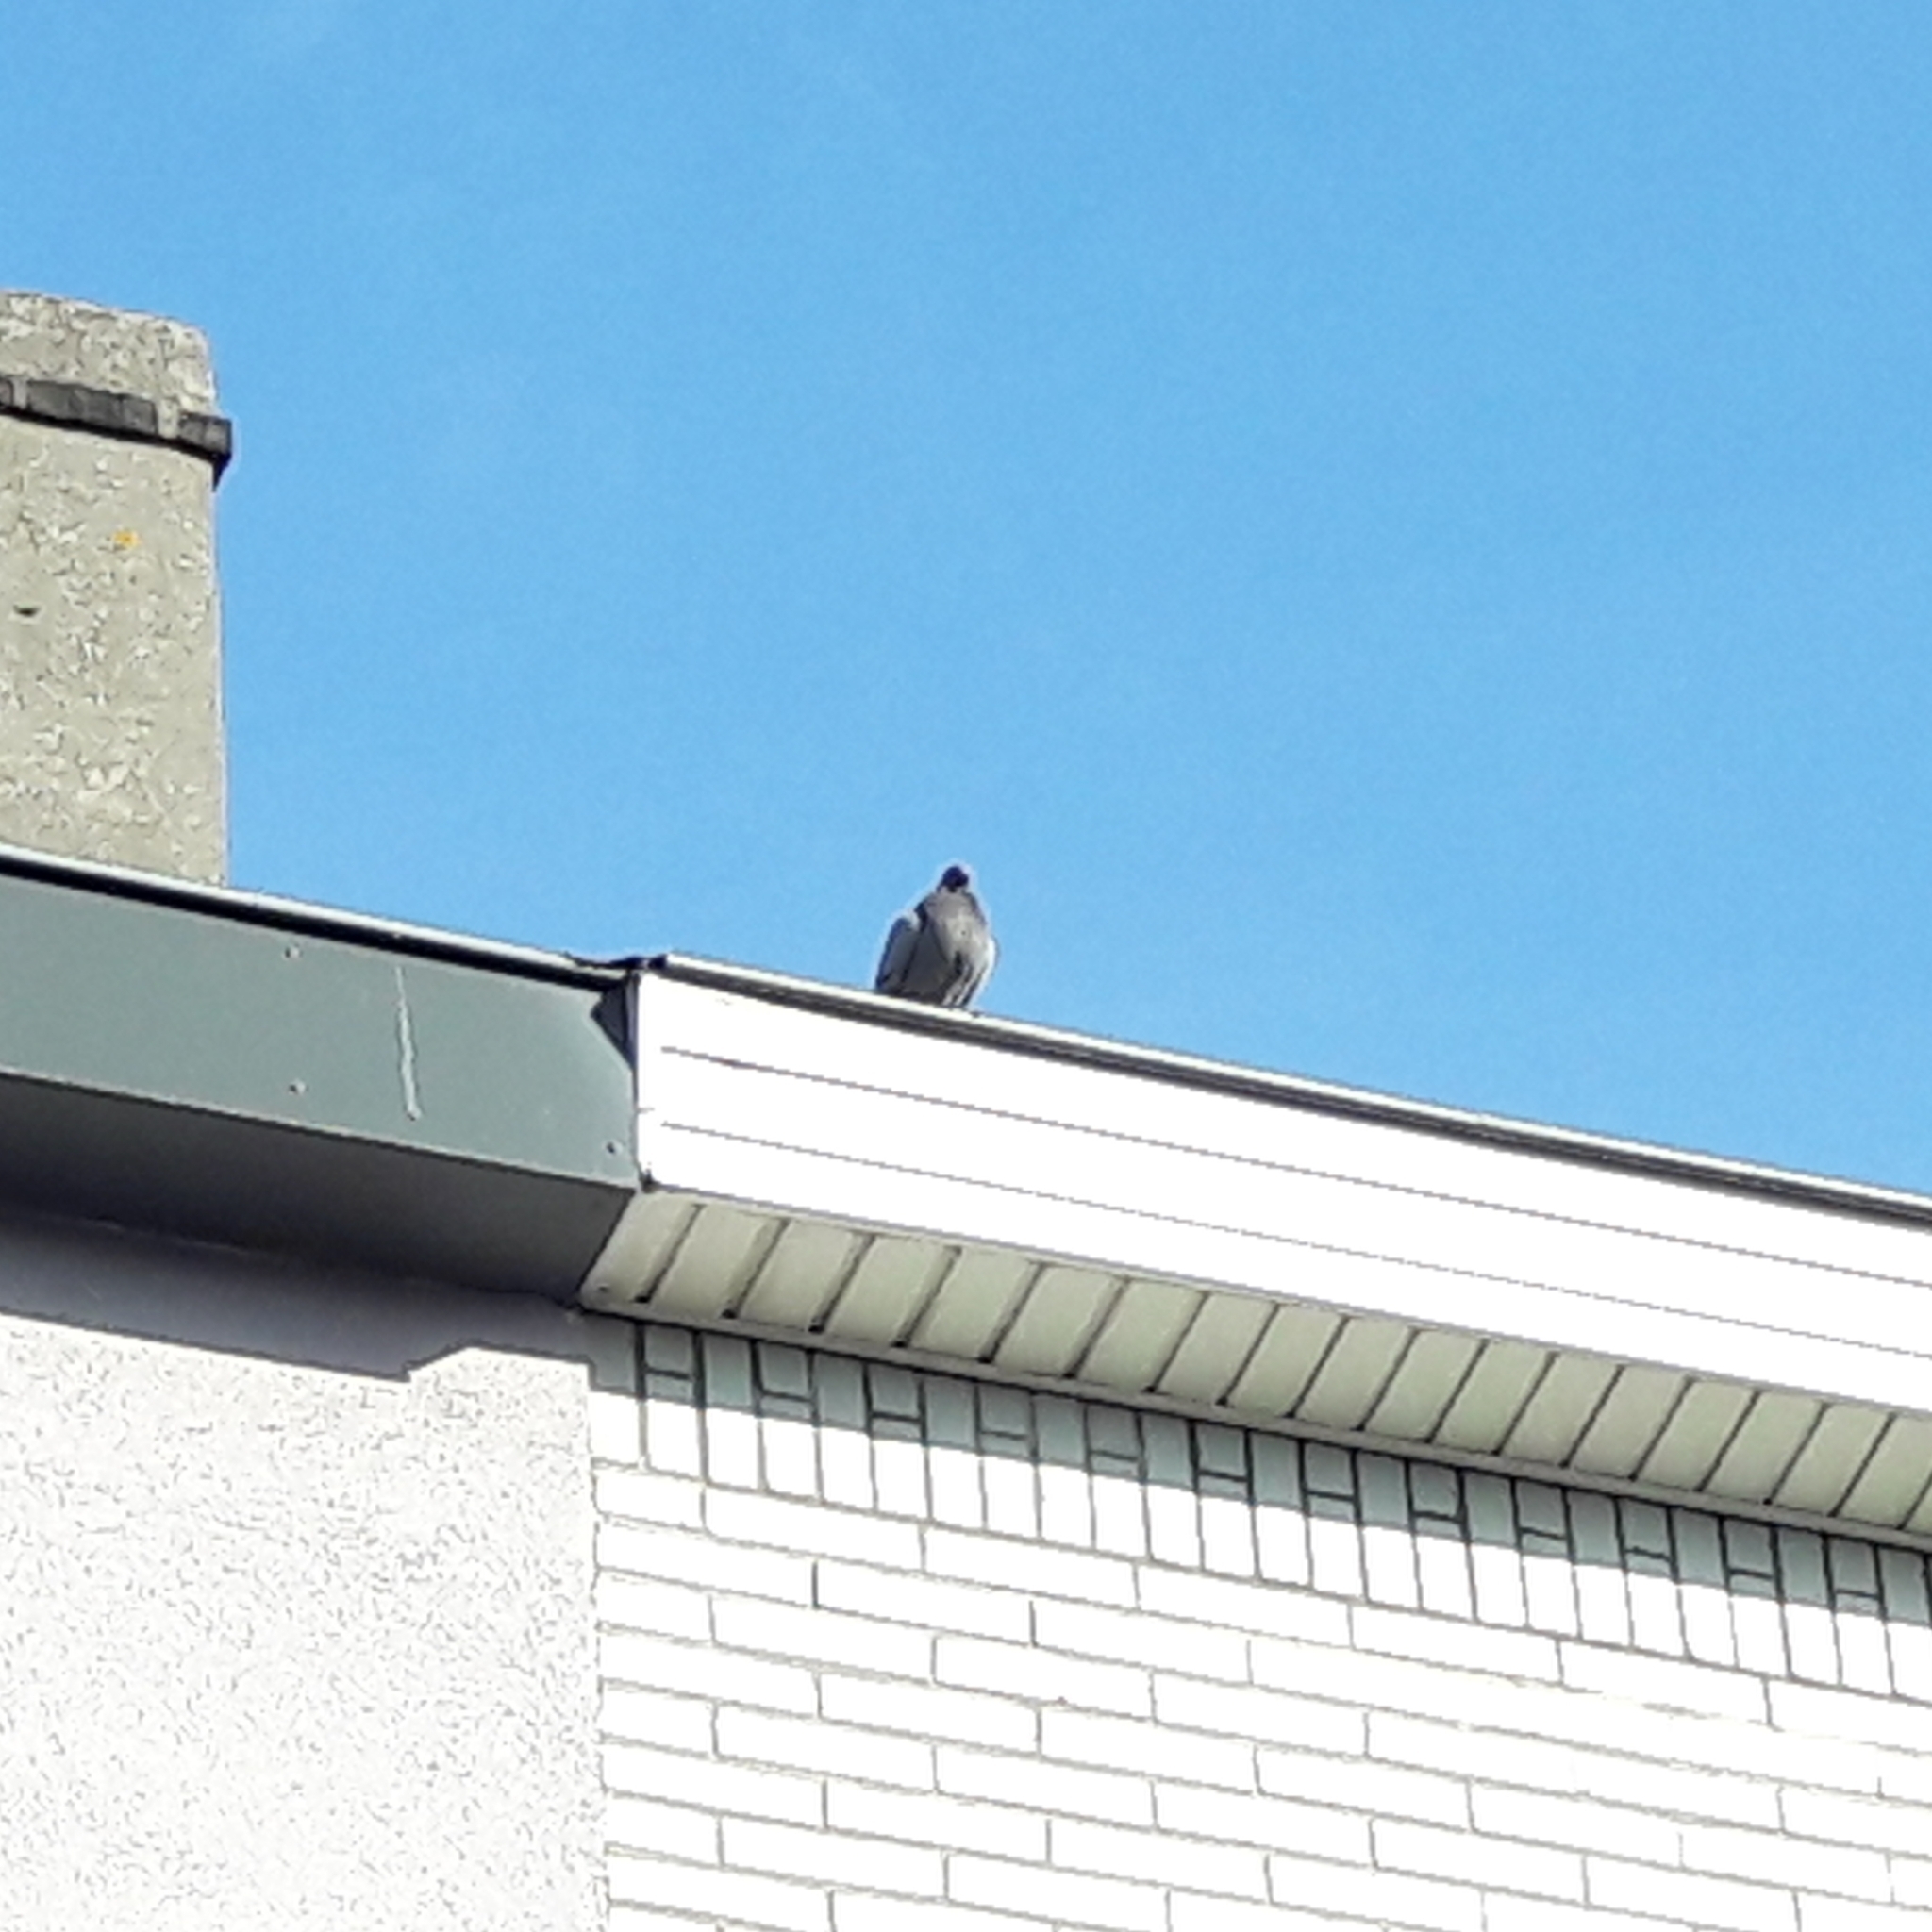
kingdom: Animalia
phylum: Chordata
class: Aves
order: Columbiformes
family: Columbidae
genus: Columba
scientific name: Columba livia
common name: Rock pigeon
